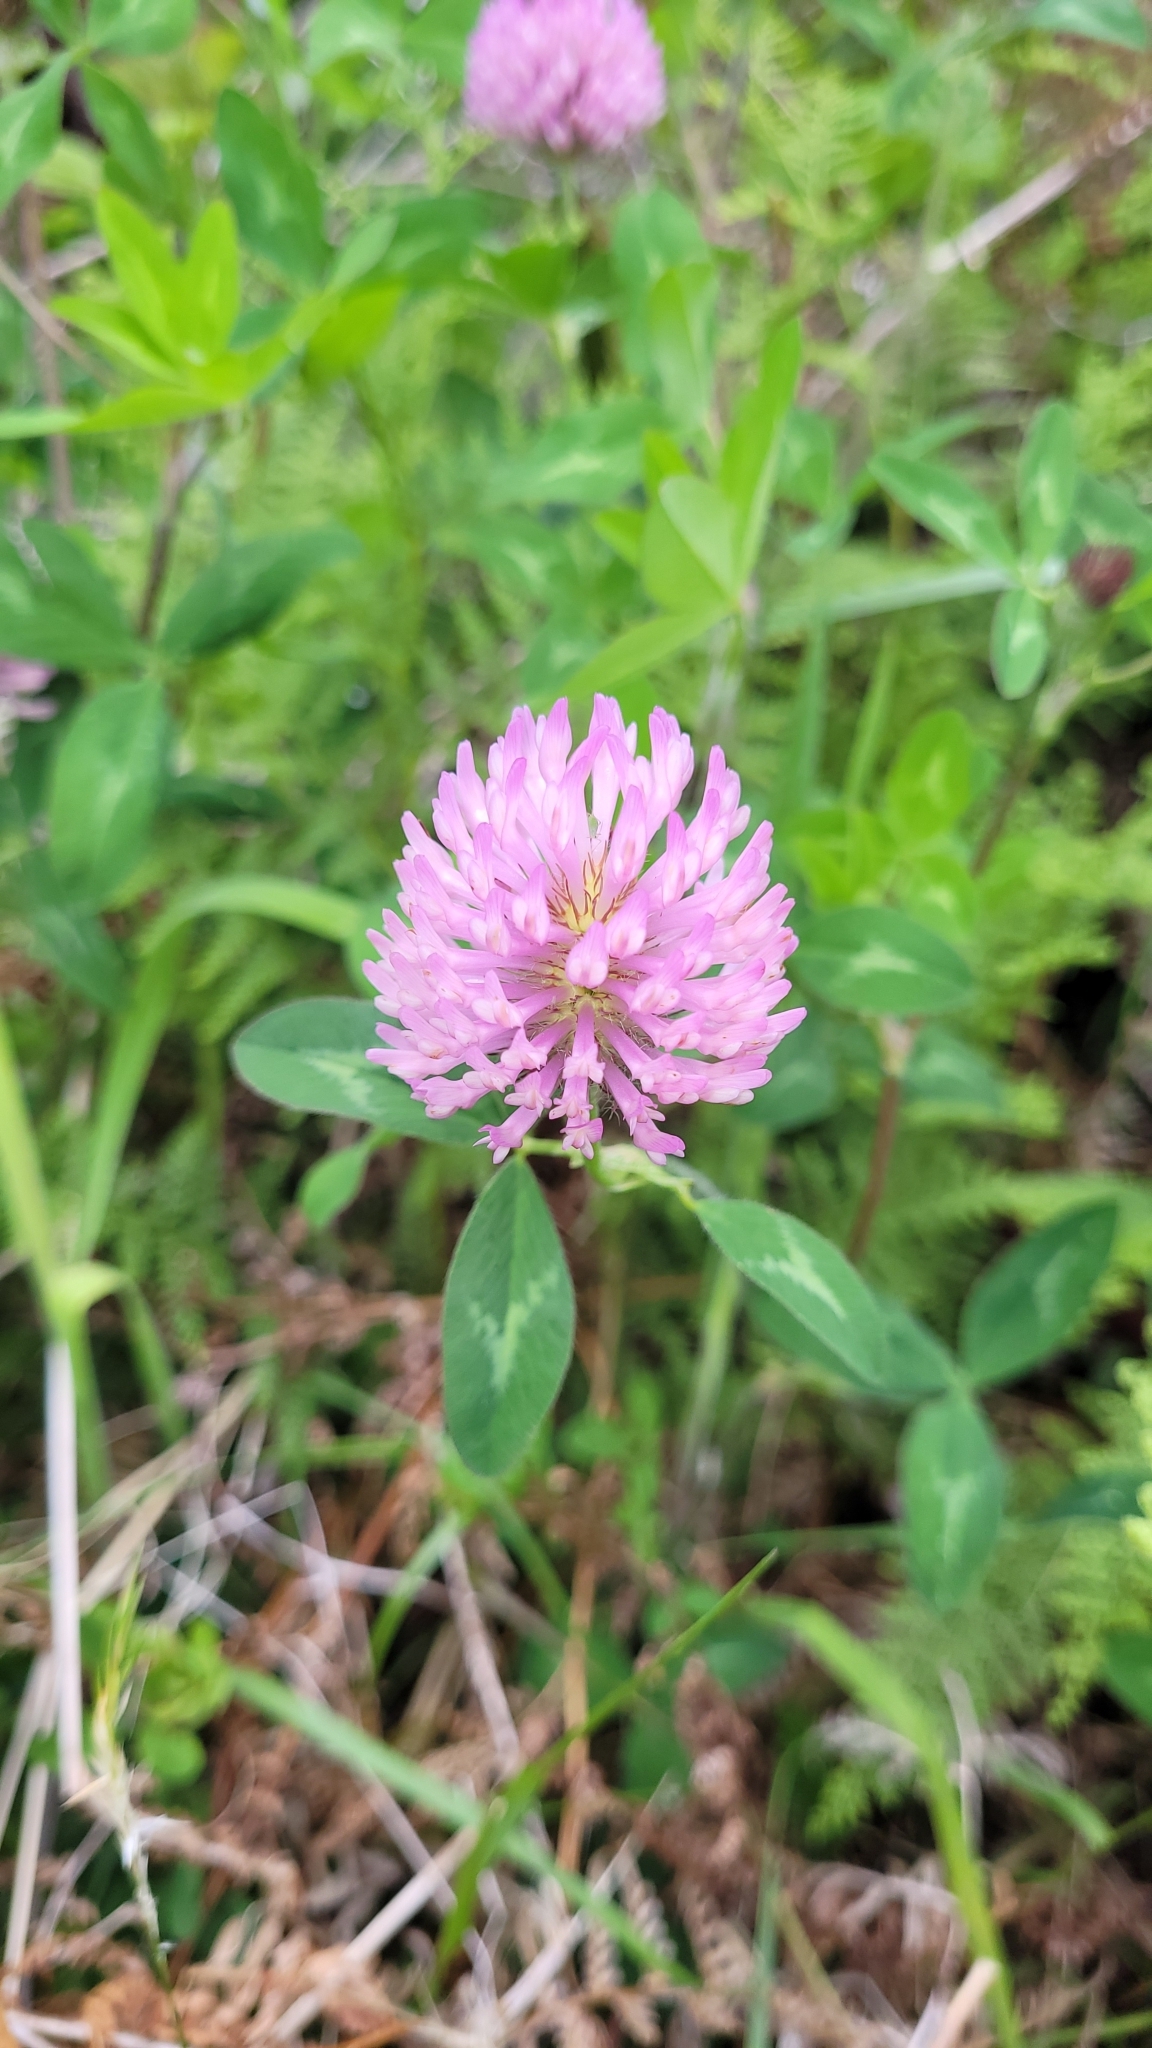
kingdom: Plantae
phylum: Tracheophyta
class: Magnoliopsida
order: Fabales
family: Fabaceae
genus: Trifolium
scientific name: Trifolium pratense
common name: Red clover
